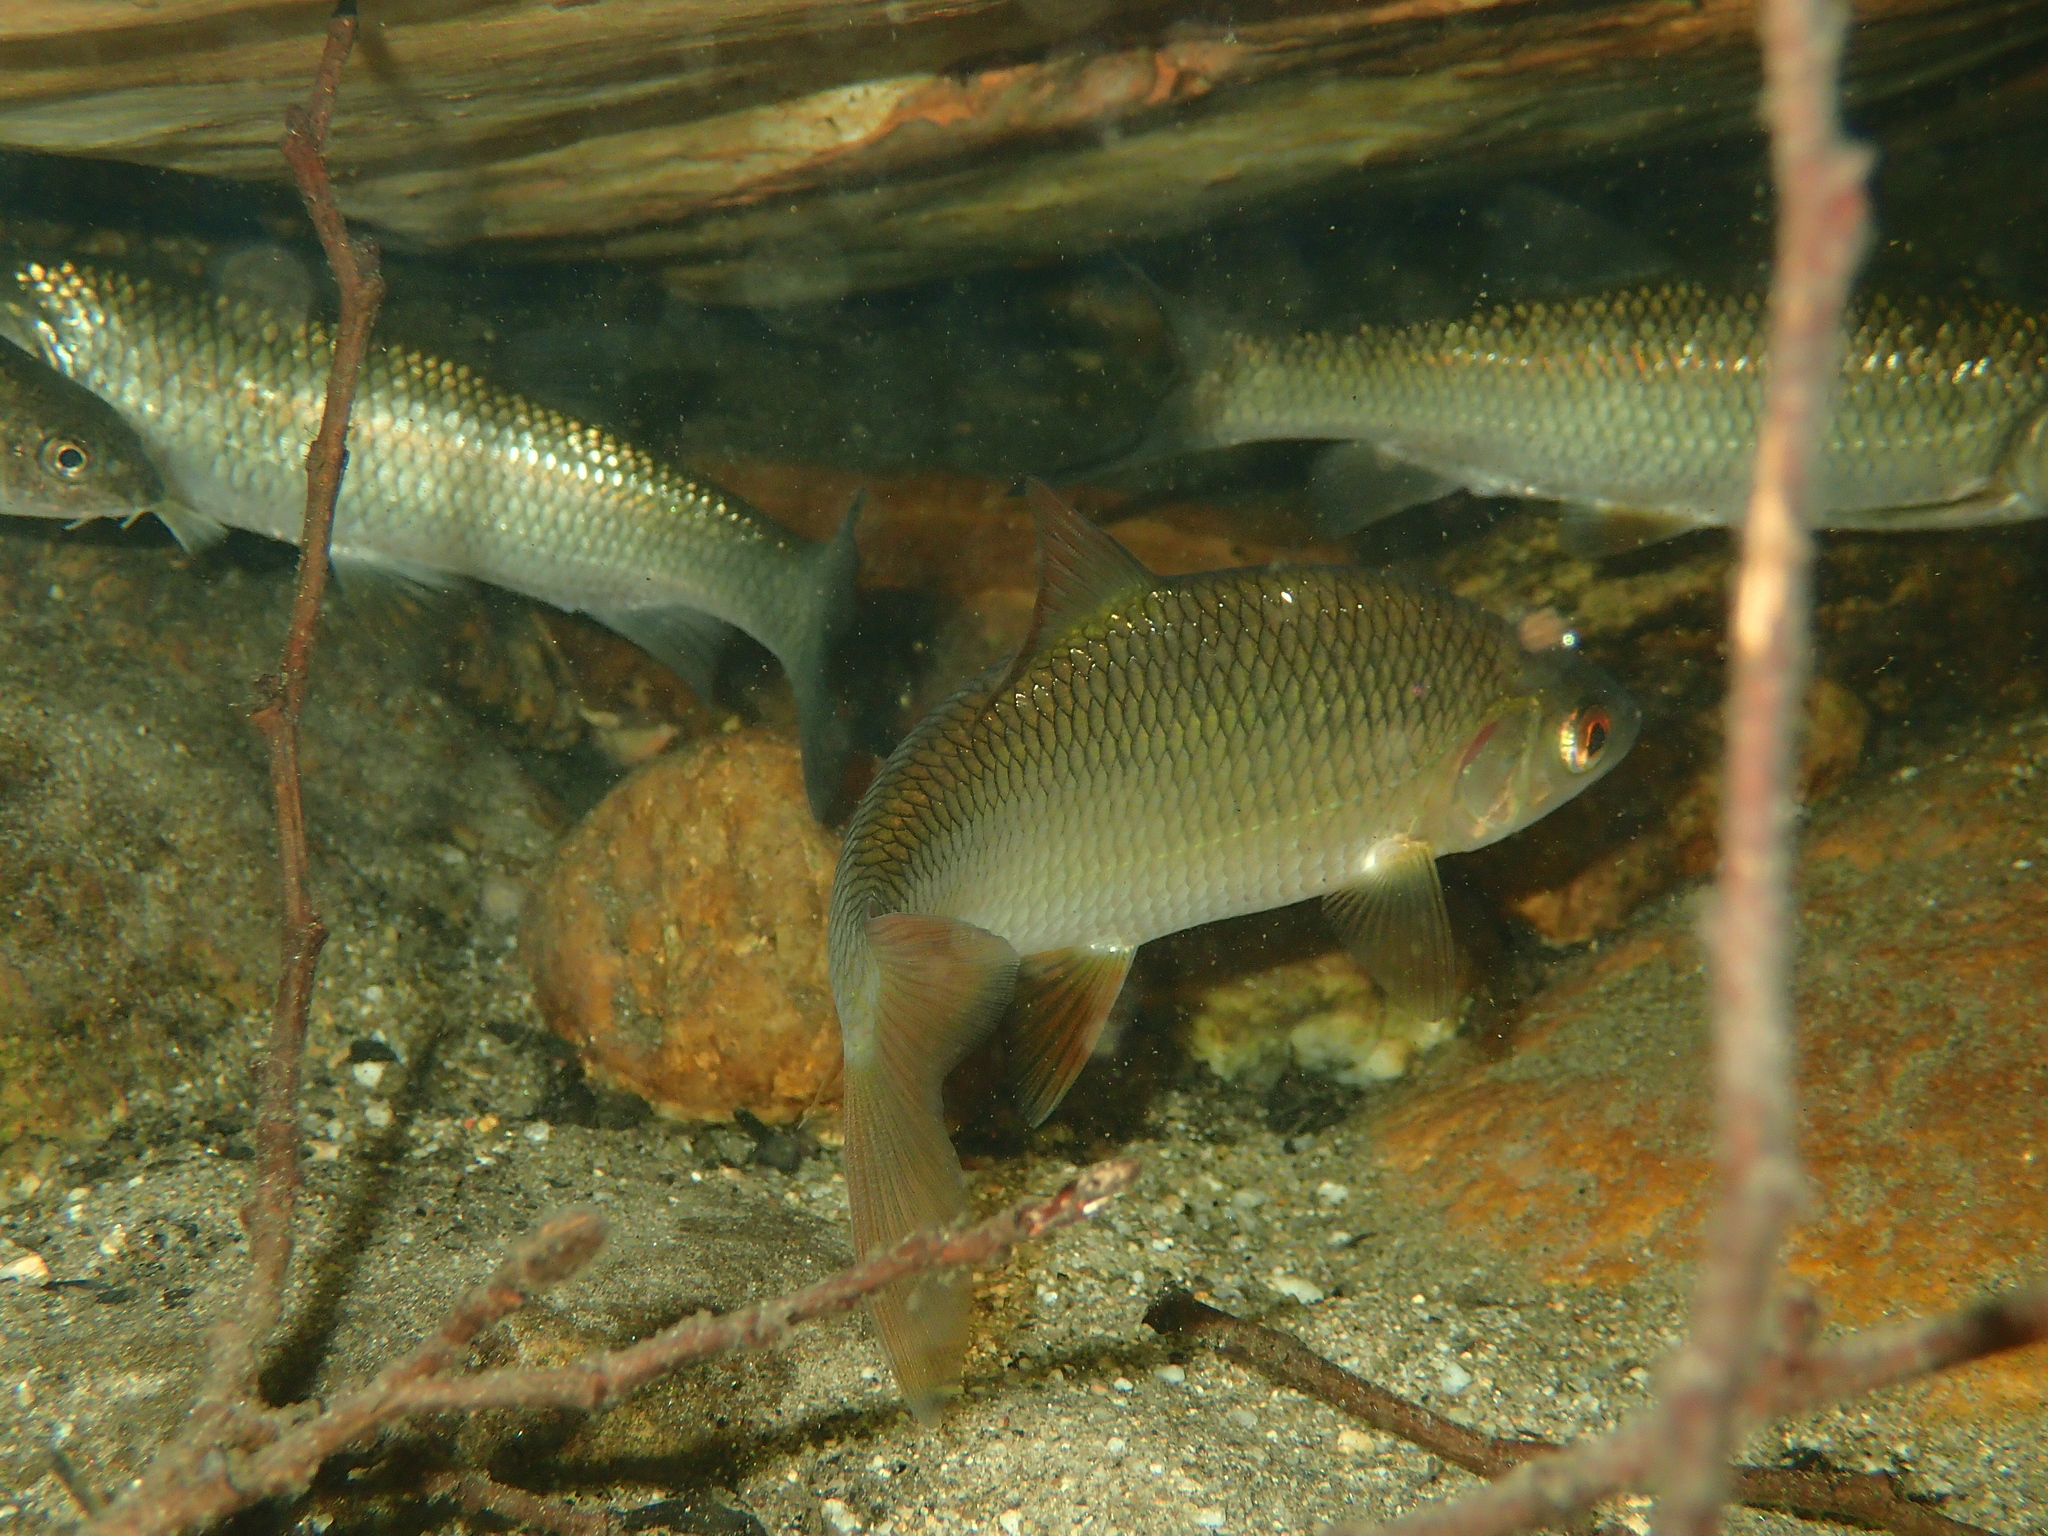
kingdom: Animalia
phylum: Chordata
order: Cypriniformes
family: Cyprinidae
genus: Rutilus
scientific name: Rutilus rutilus
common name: Roach
